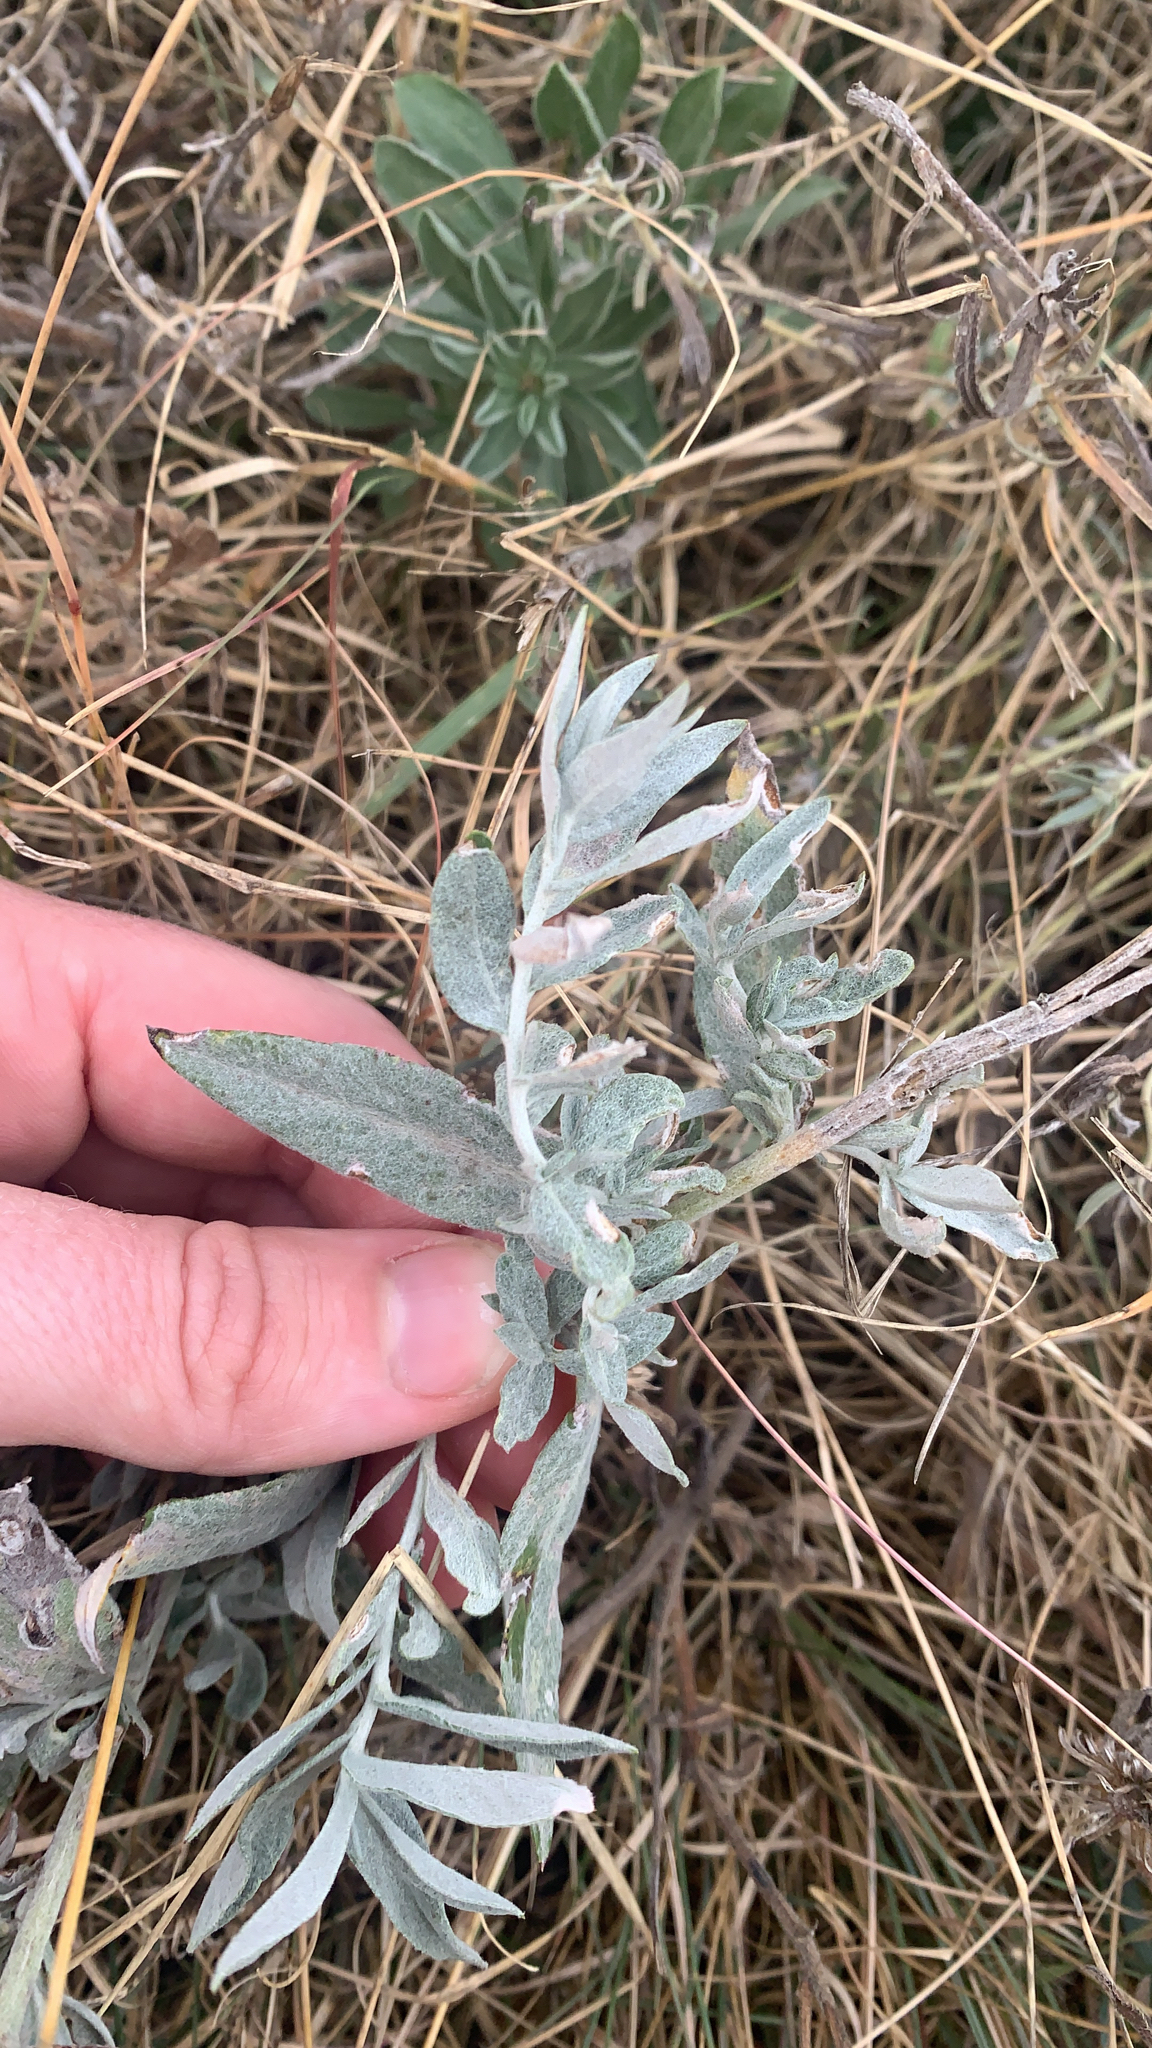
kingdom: Plantae
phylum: Tracheophyta
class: Magnoliopsida
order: Asterales
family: Asteraceae
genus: Artemisia
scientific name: Artemisia ludoviciana
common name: Western mugwort
